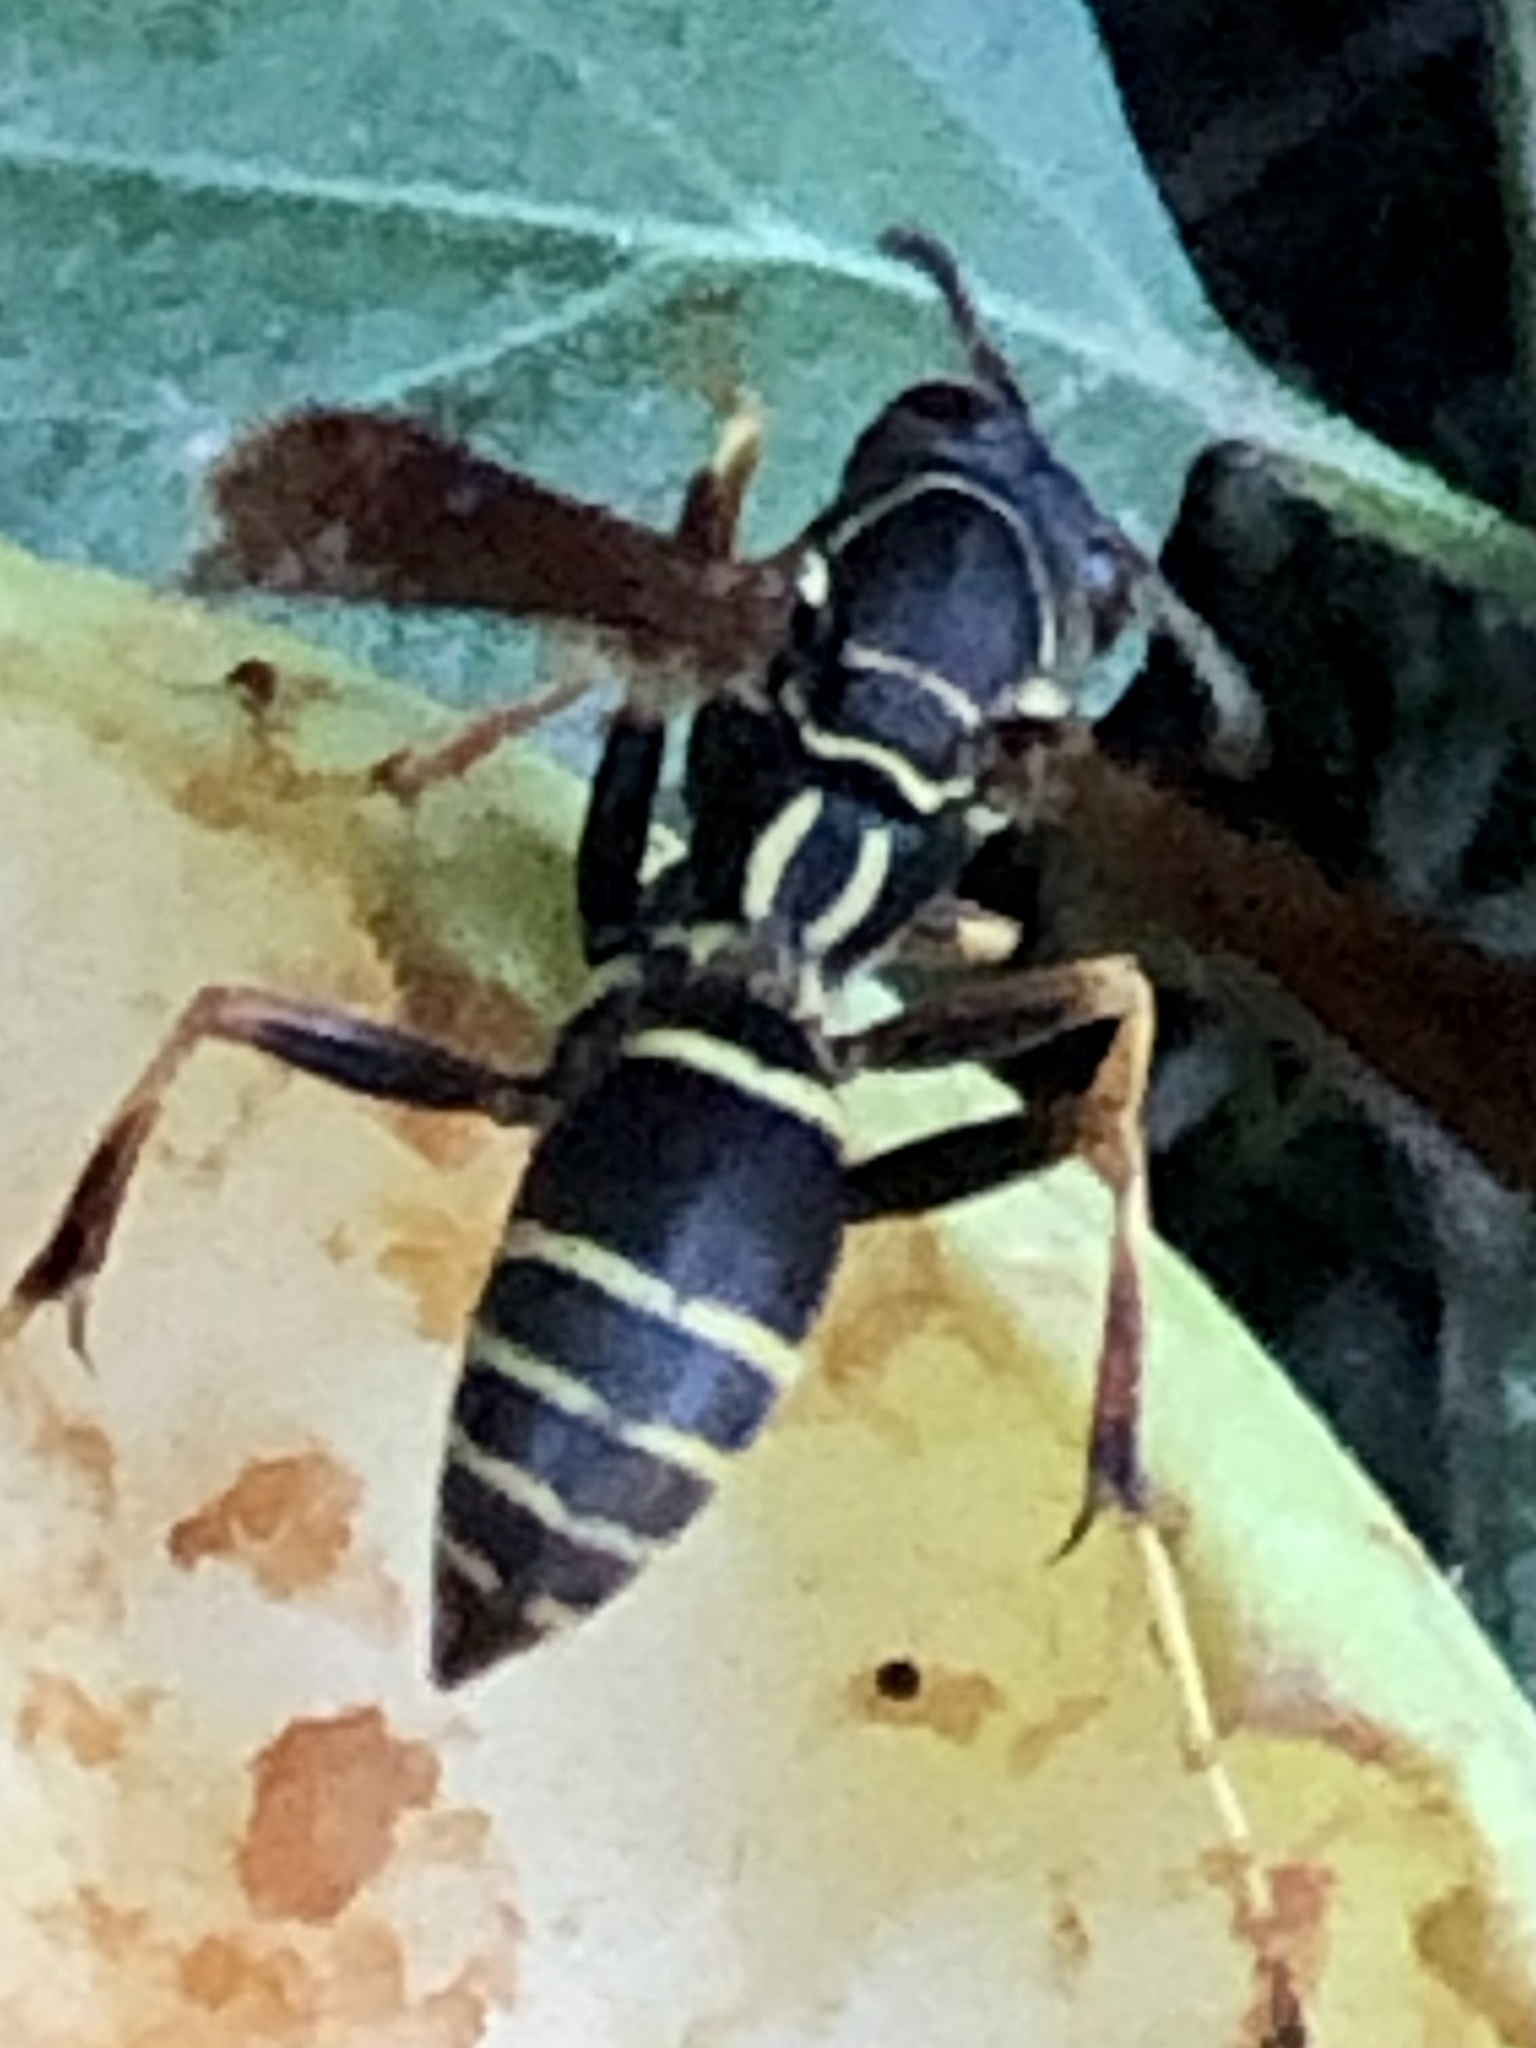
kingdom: Animalia
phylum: Arthropoda
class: Insecta
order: Hymenoptera
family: Eumenidae
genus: Polistes
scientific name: Polistes fuscatus
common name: Dark paper wasp
